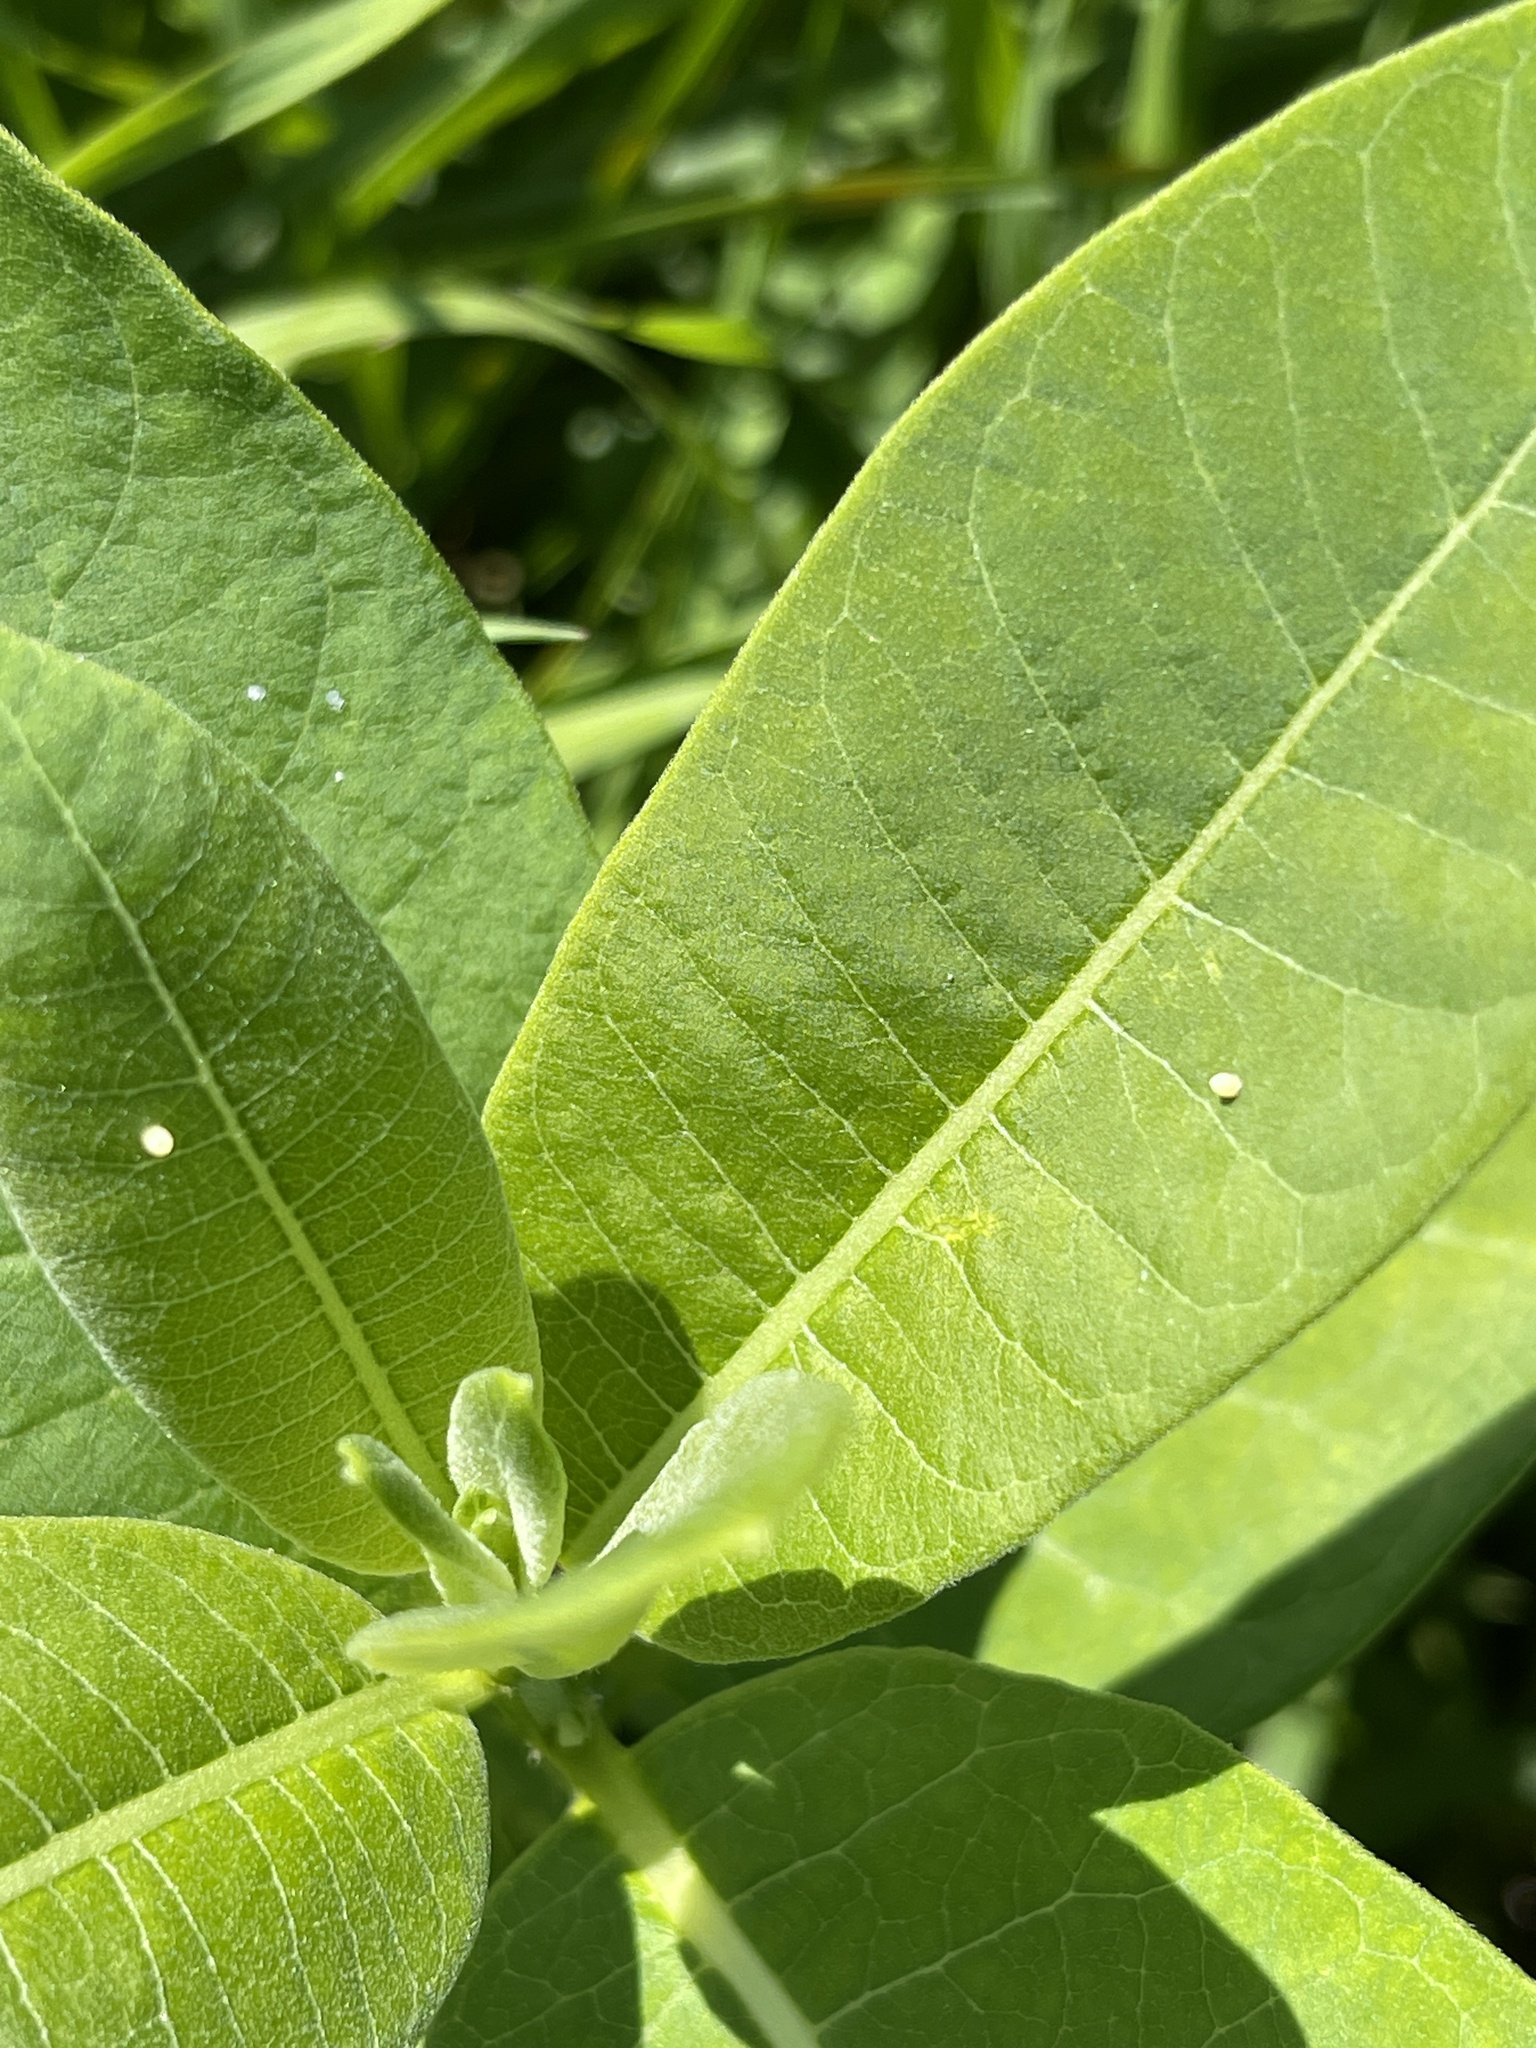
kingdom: Animalia
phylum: Arthropoda
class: Insecta
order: Lepidoptera
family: Nymphalidae
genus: Danaus
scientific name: Danaus plexippus
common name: Monarch
